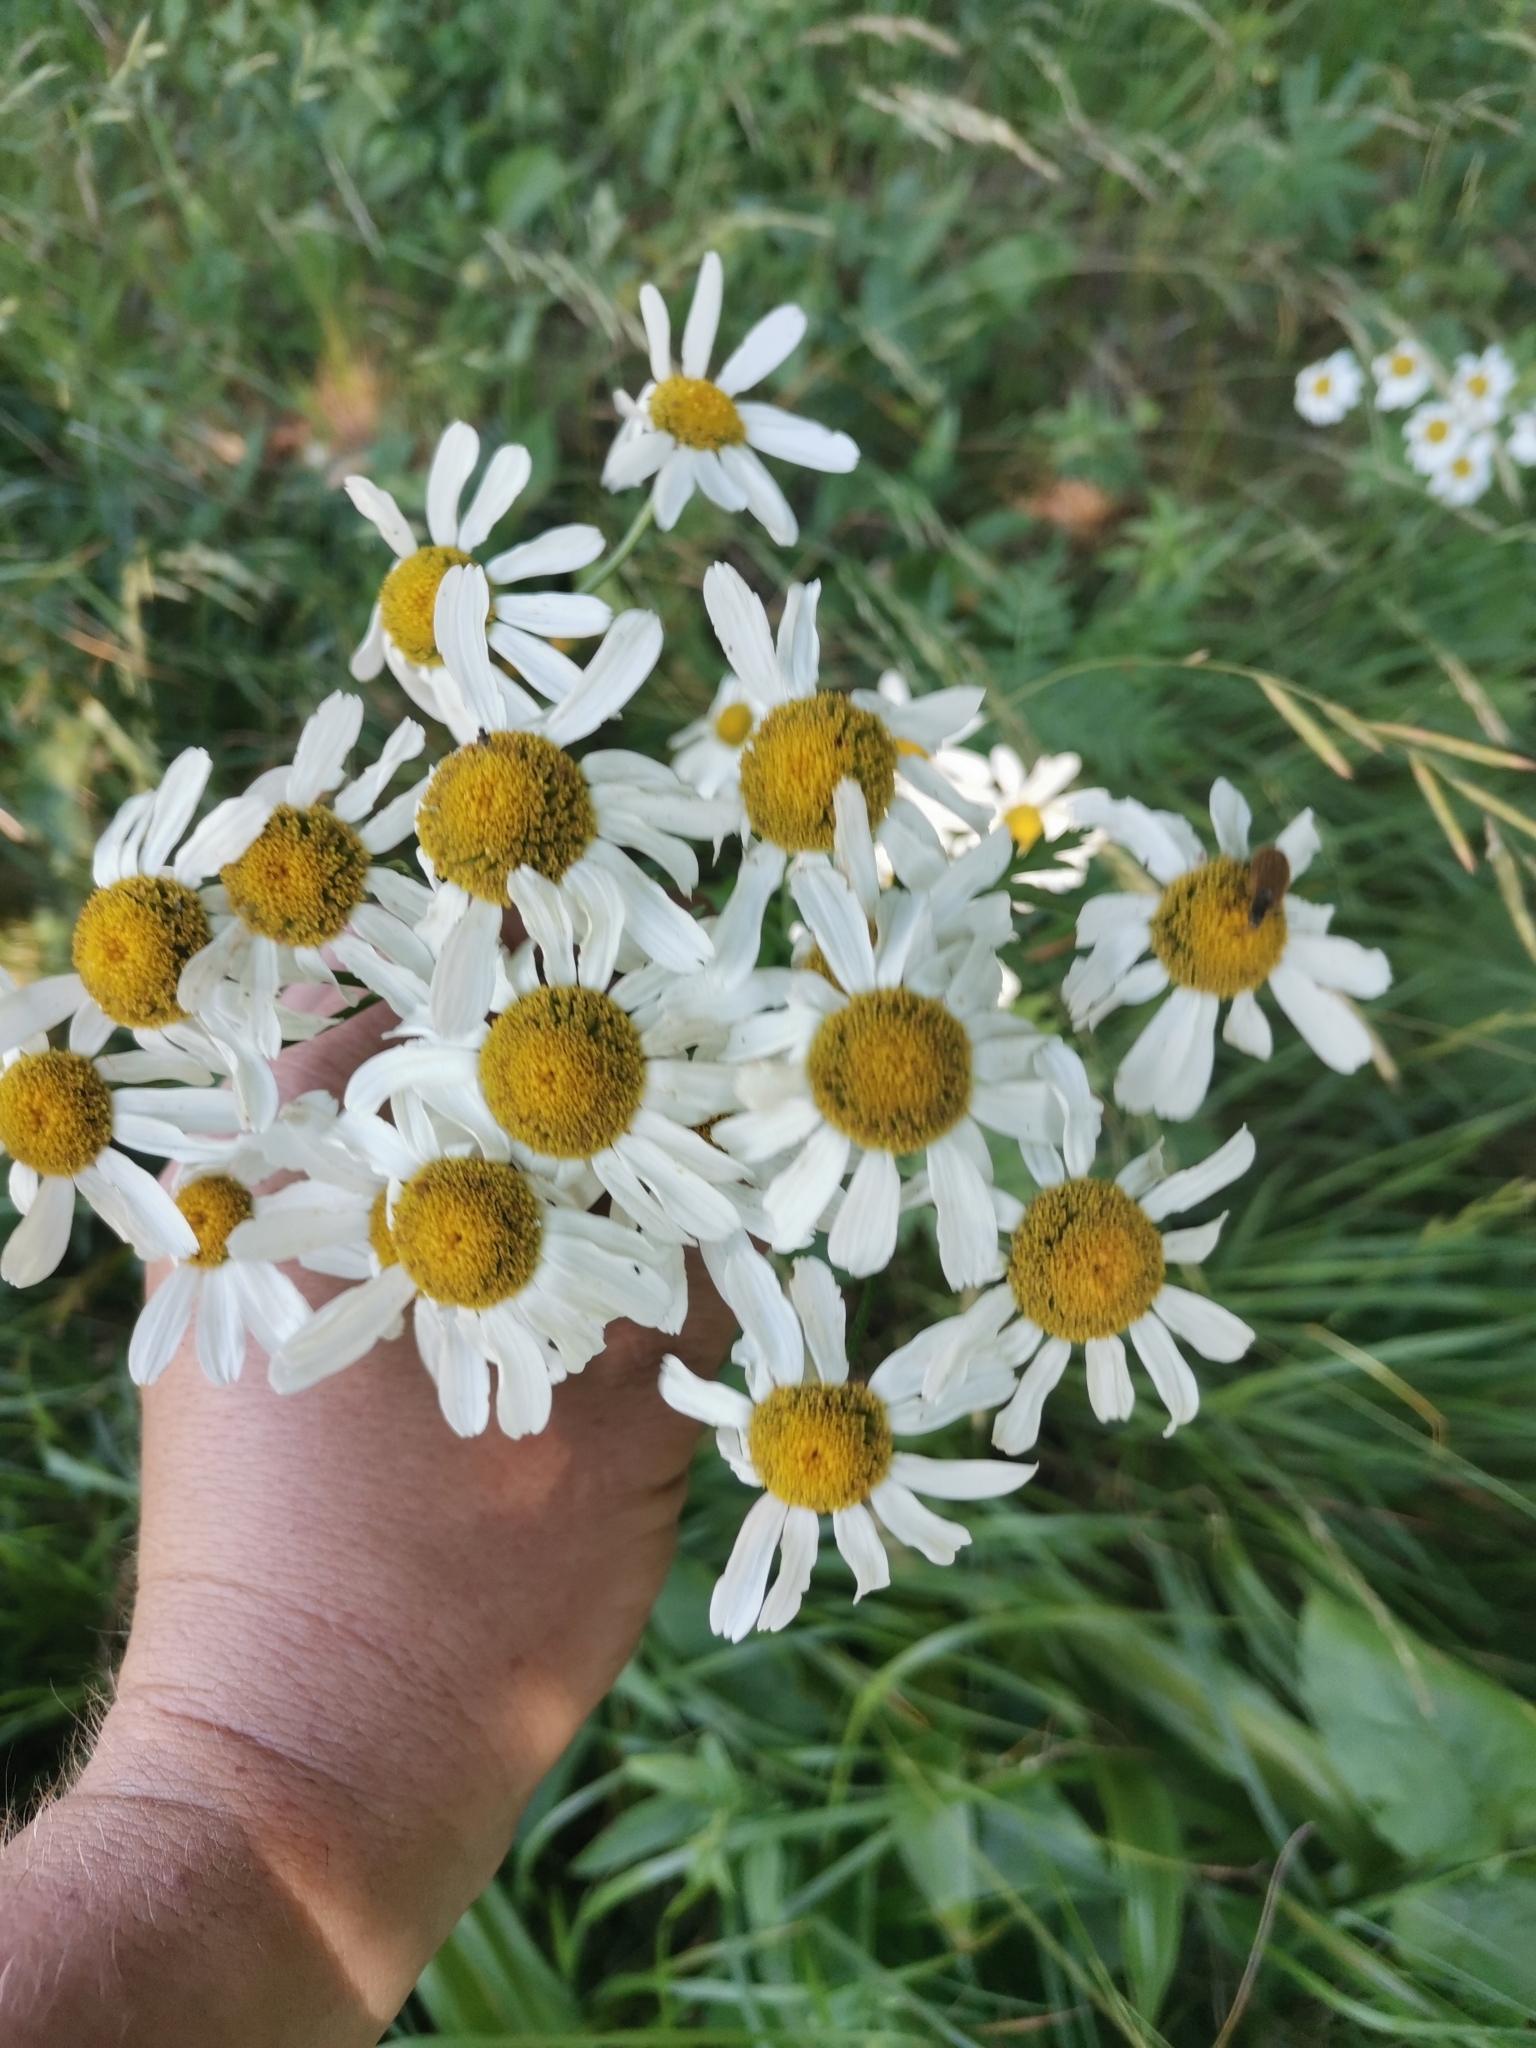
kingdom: Plantae
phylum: Tracheophyta
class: Magnoliopsida
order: Asterales
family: Asteraceae
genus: Tanacetum
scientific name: Tanacetum corymbosum
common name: Scentless feverfew
